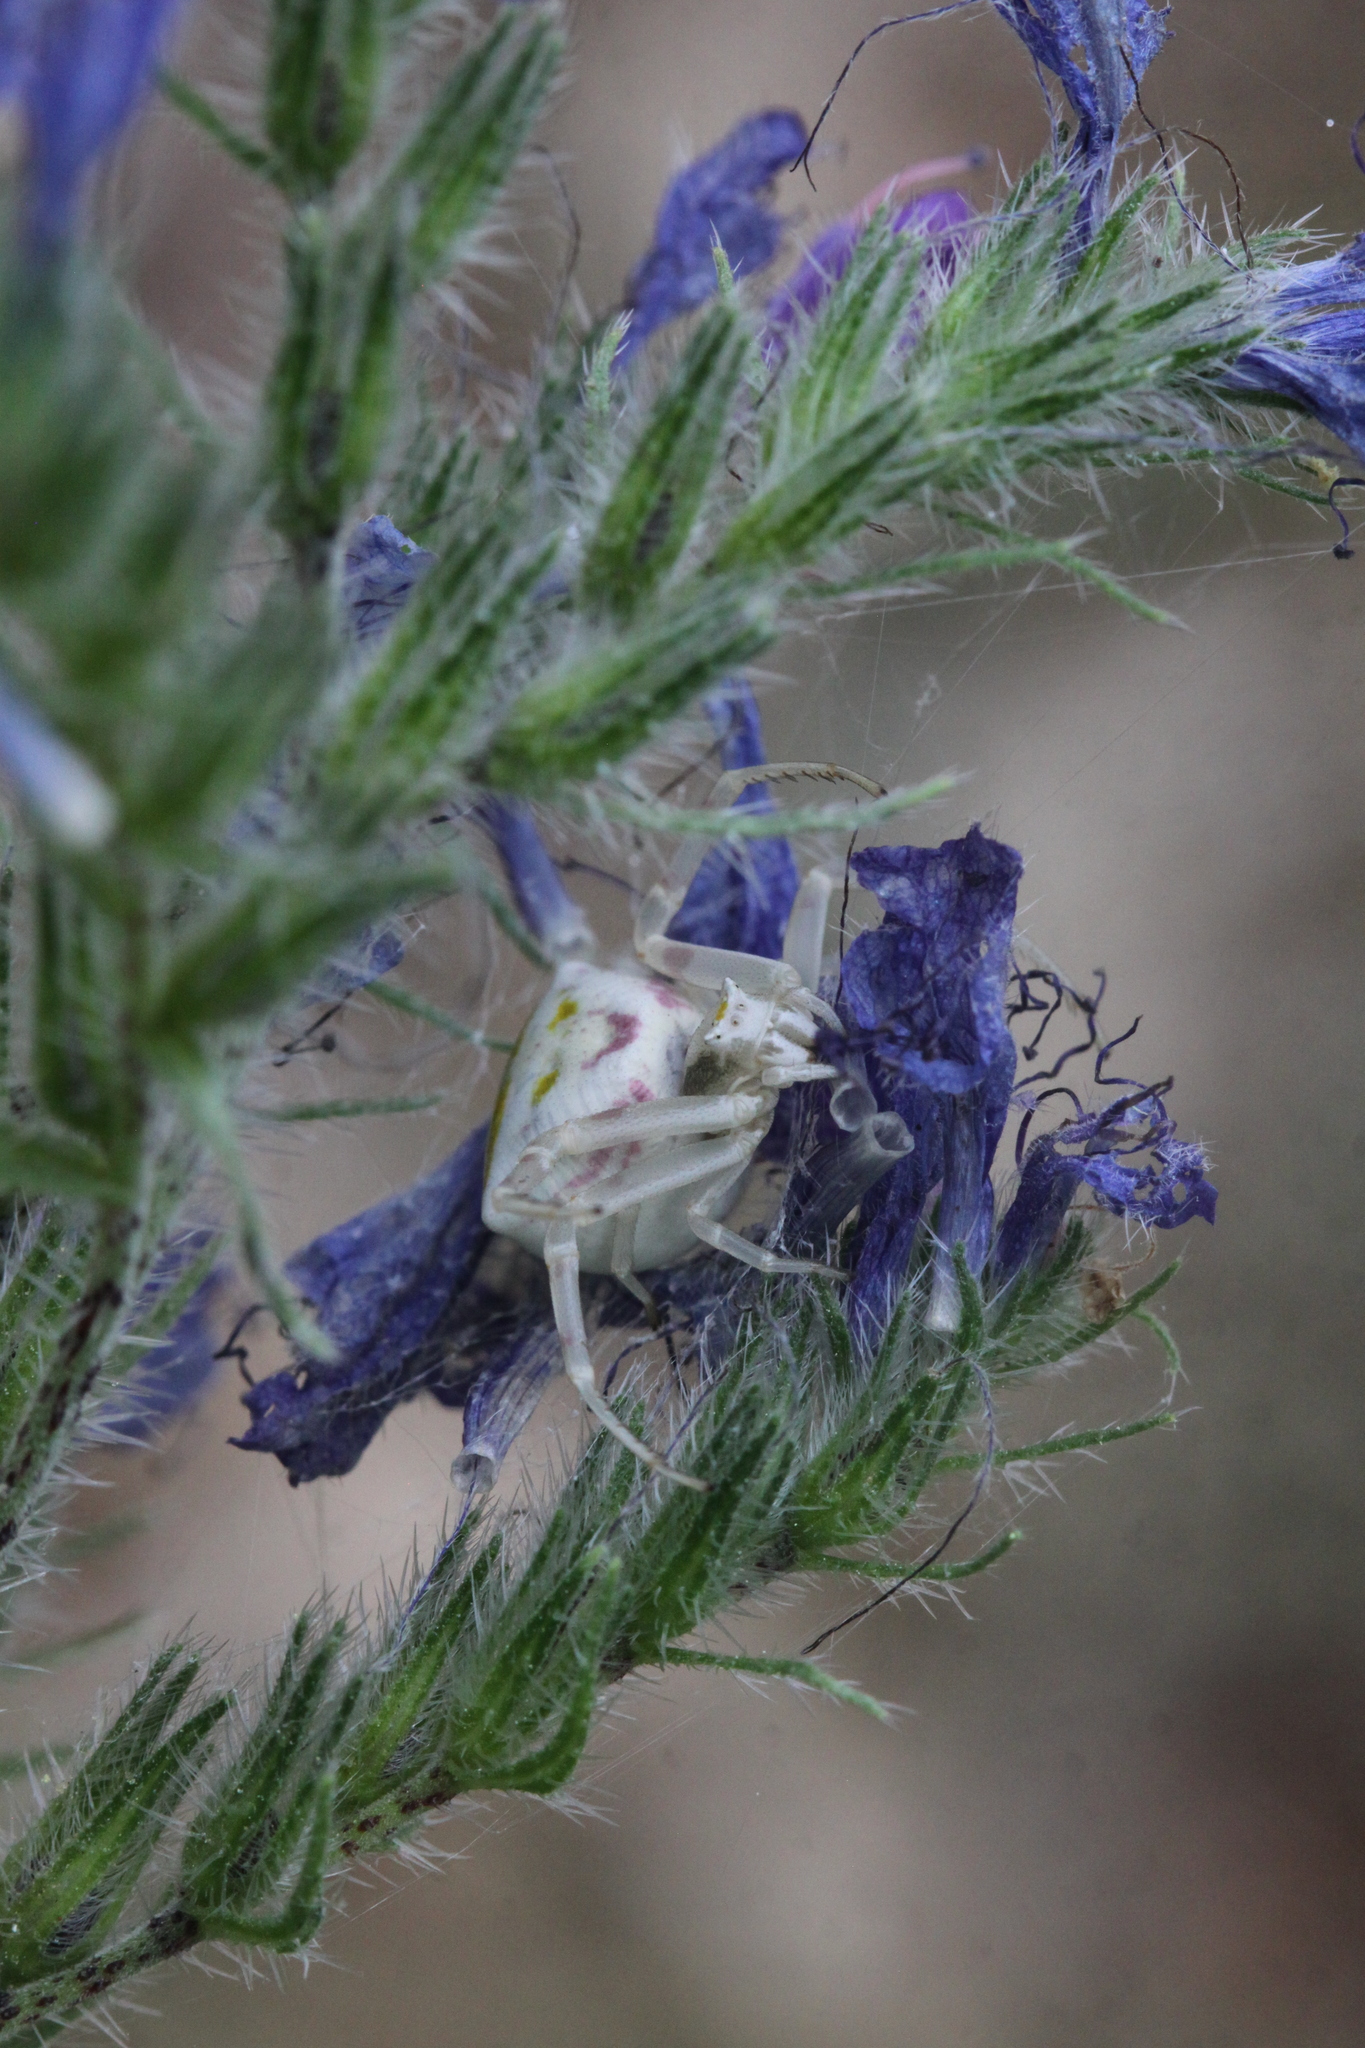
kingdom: Animalia
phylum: Arthropoda
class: Arachnida
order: Araneae
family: Thomisidae
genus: Thomisus
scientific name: Thomisus onustus
